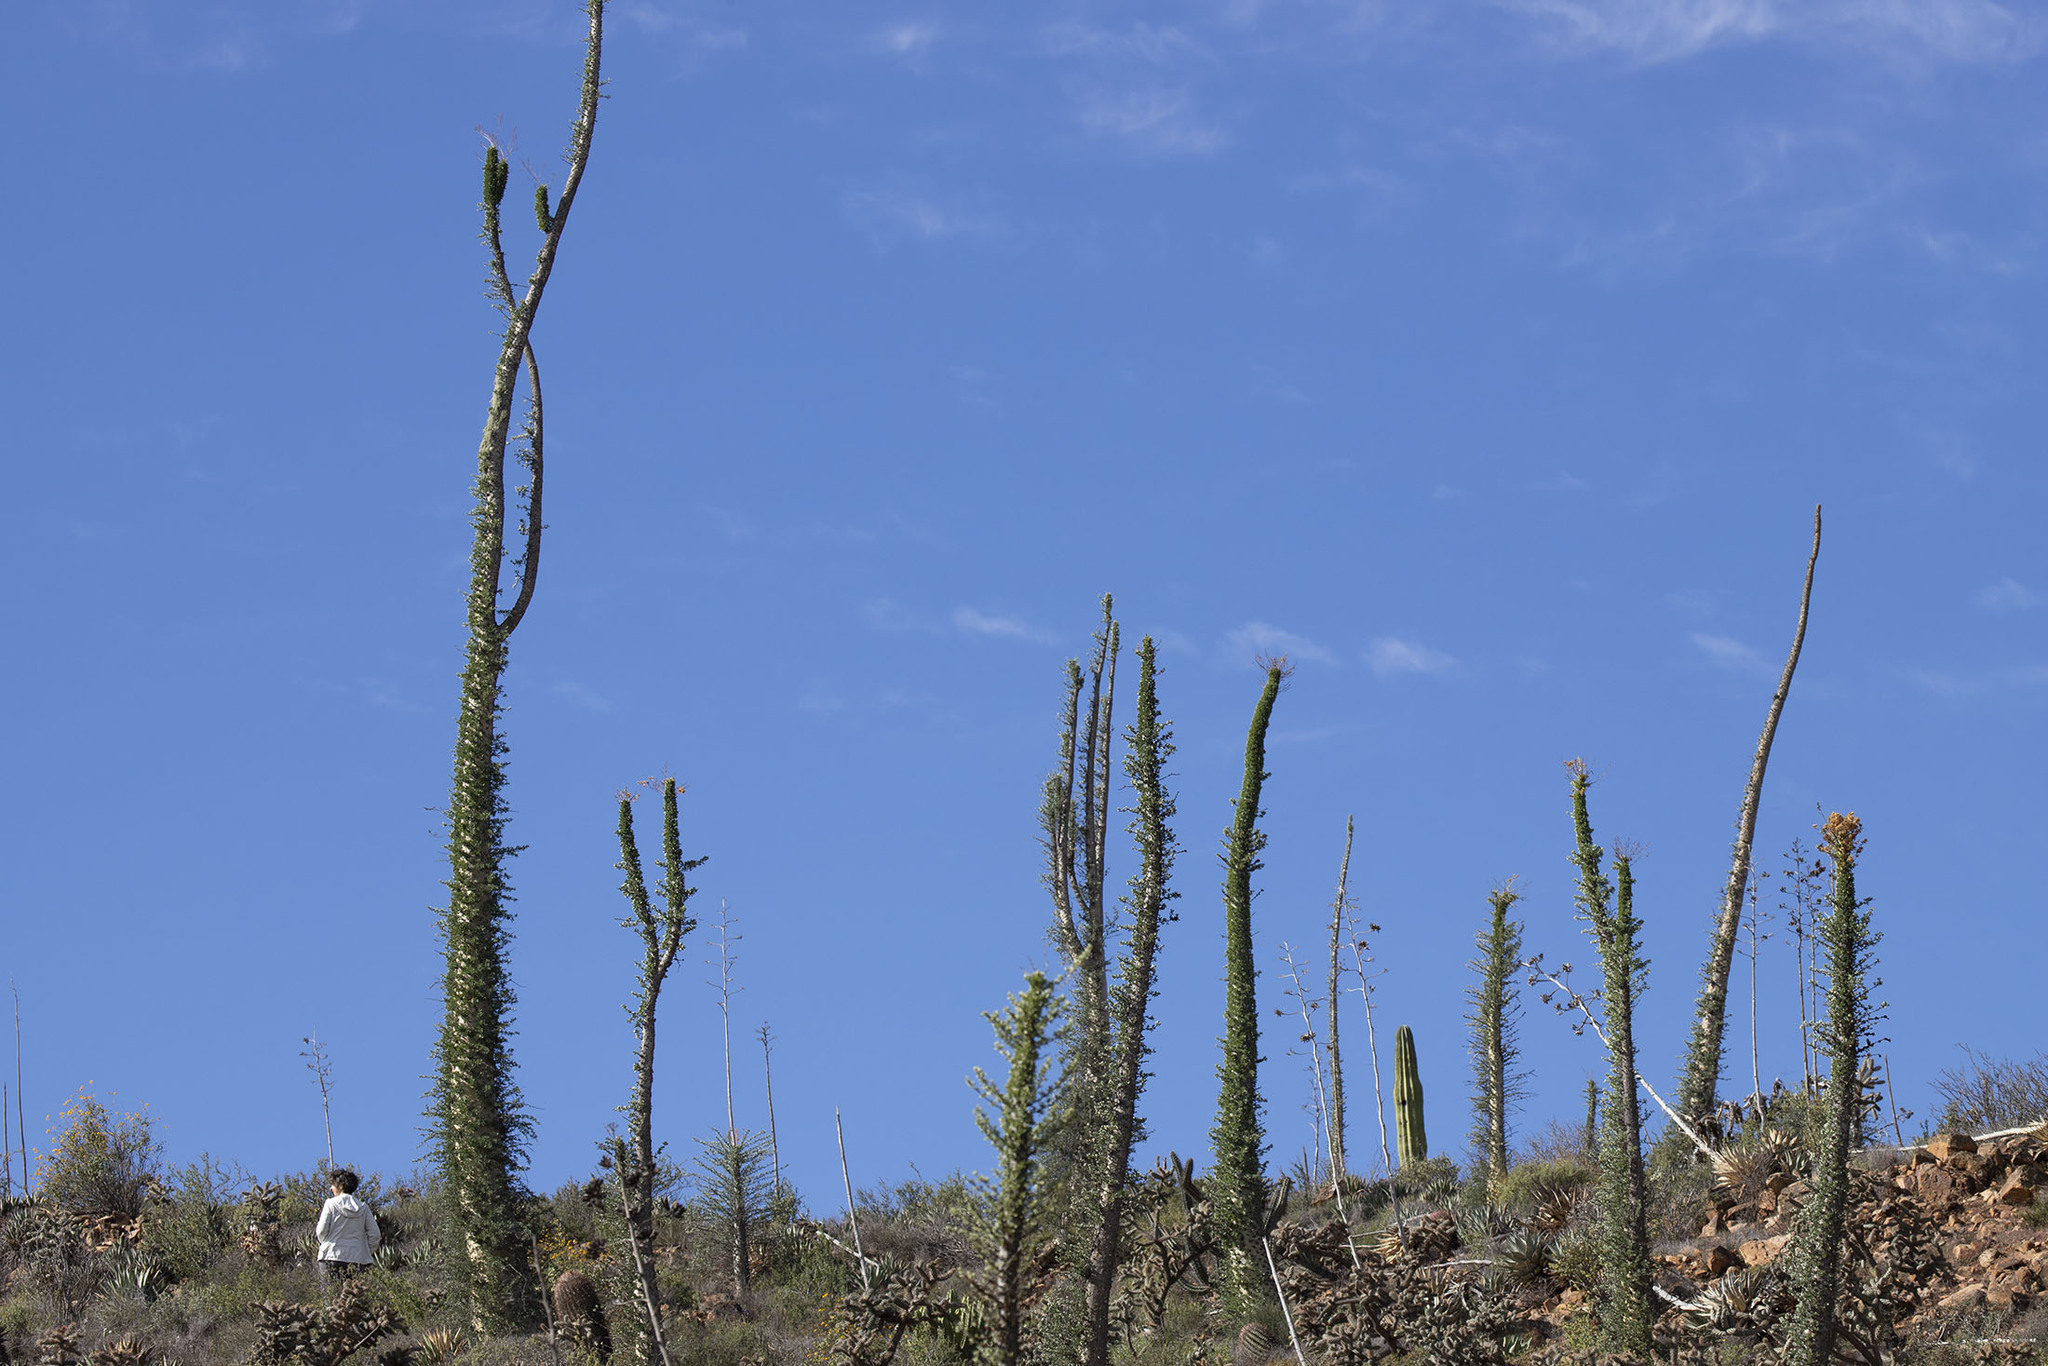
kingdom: Plantae
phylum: Tracheophyta
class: Magnoliopsida
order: Ericales
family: Fouquieriaceae
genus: Fouquieria
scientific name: Fouquieria columnaris
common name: Boojumtree
